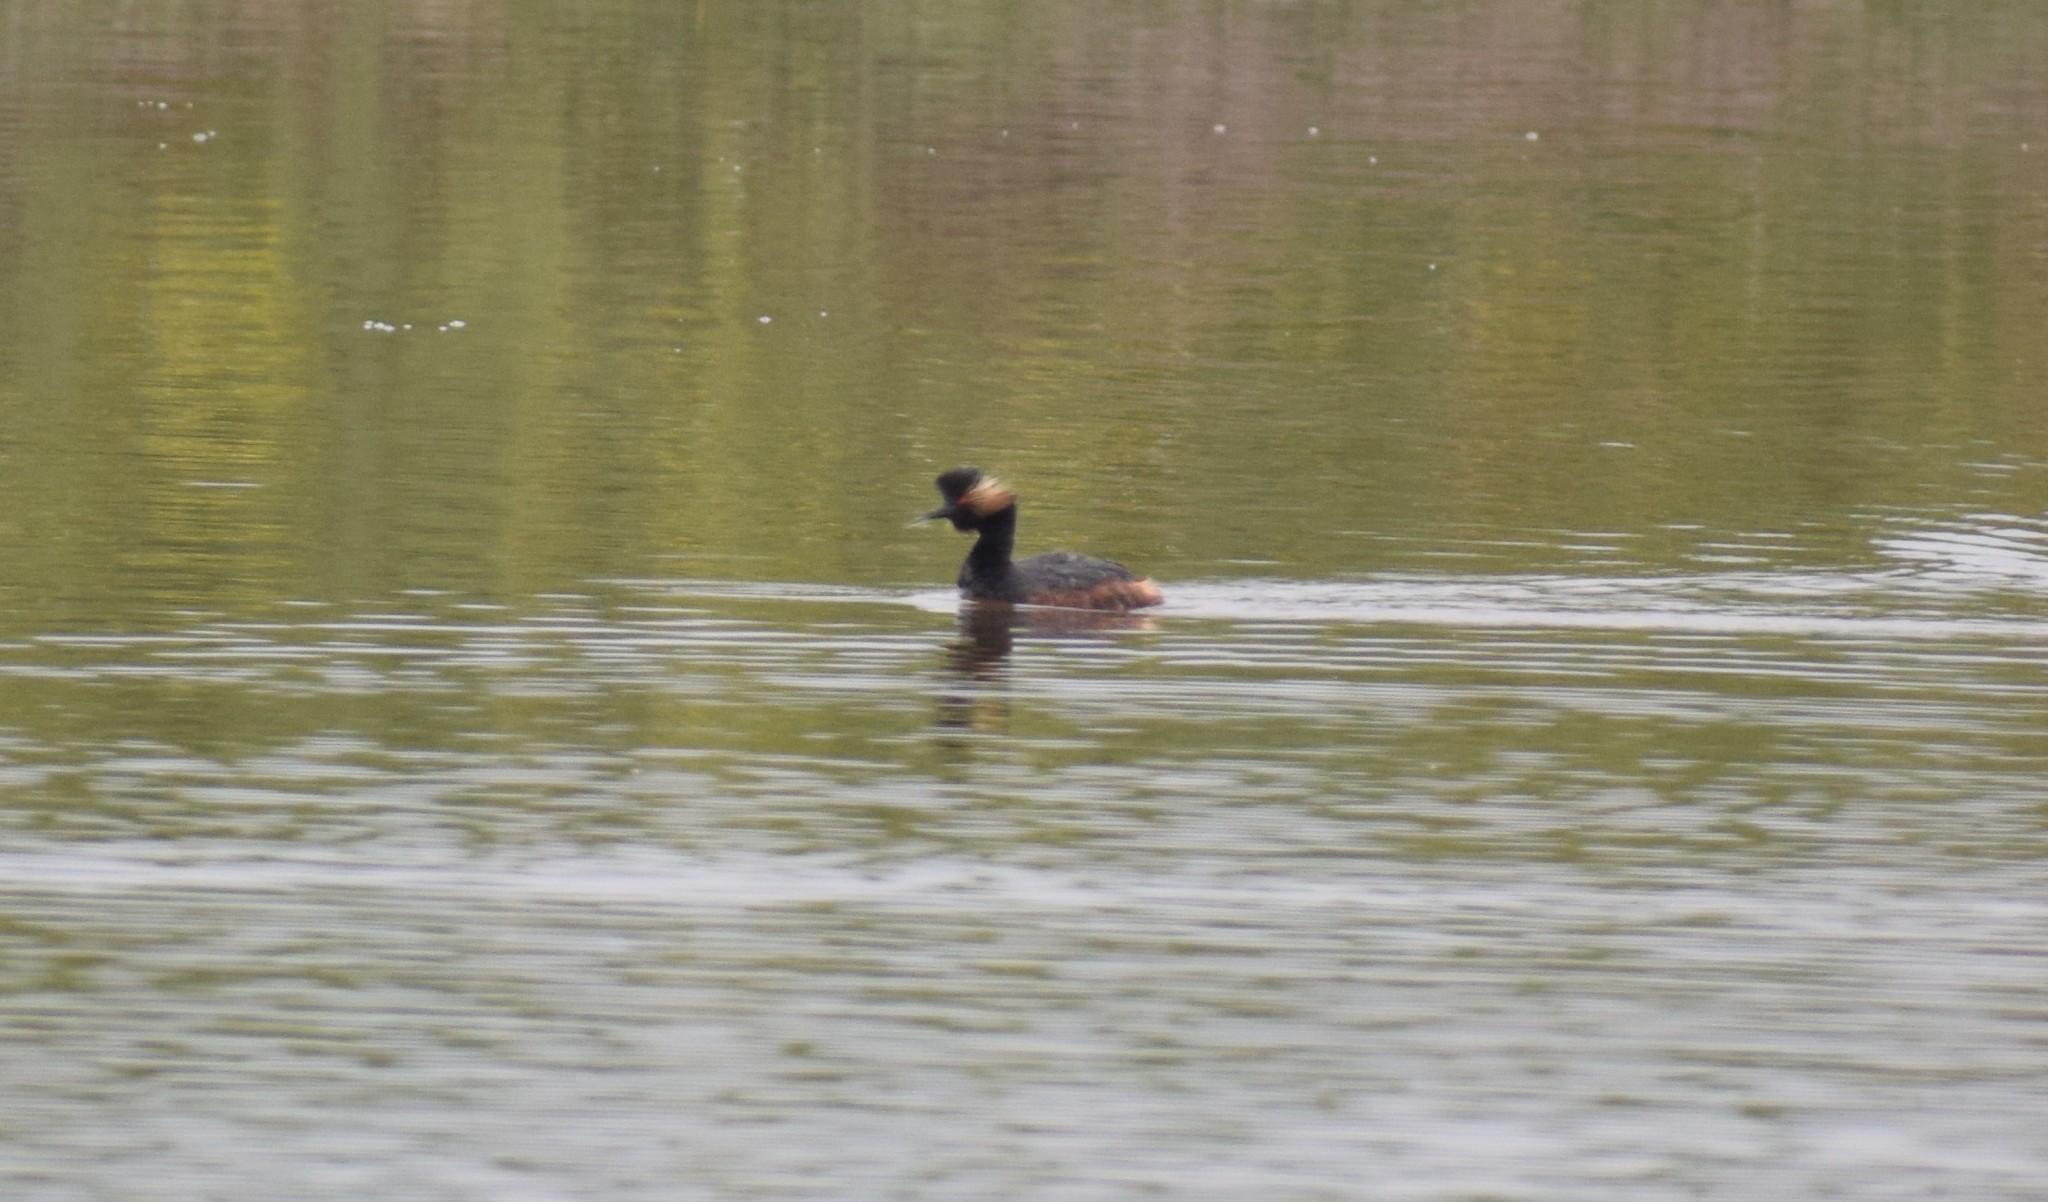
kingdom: Animalia
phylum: Chordata
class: Aves
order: Podicipediformes
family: Podicipedidae
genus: Podiceps
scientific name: Podiceps nigricollis
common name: Black-necked grebe
